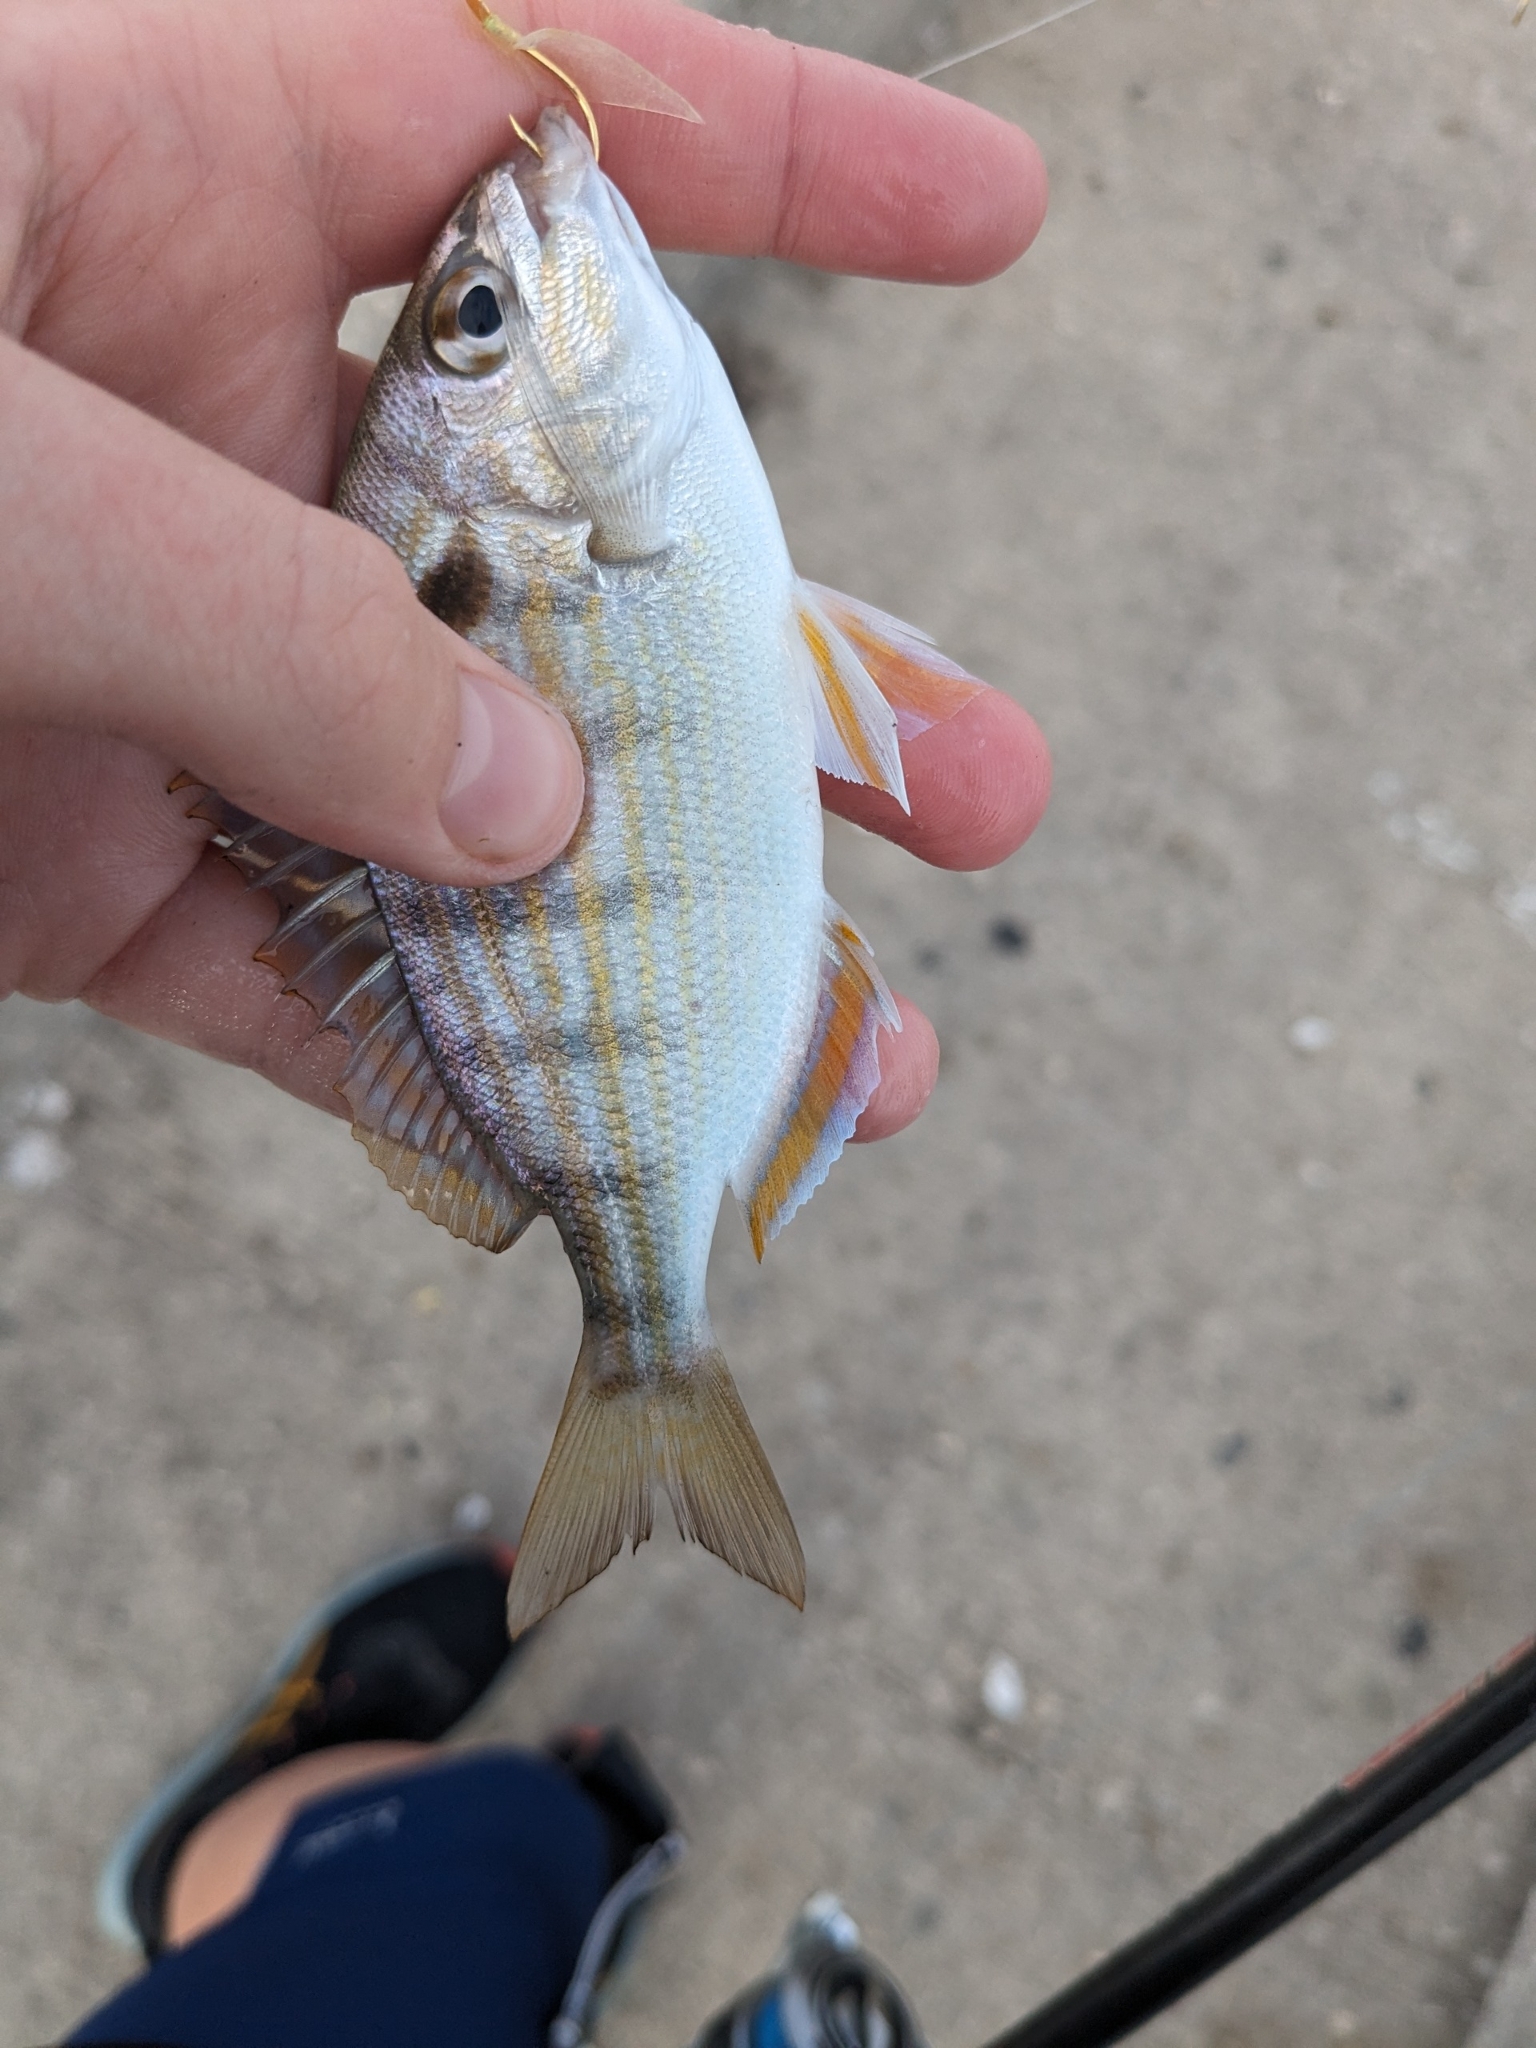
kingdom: Animalia
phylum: Chordata
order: Perciformes
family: Sparidae
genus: Lagodon
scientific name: Lagodon rhomboides
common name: Pinfish
